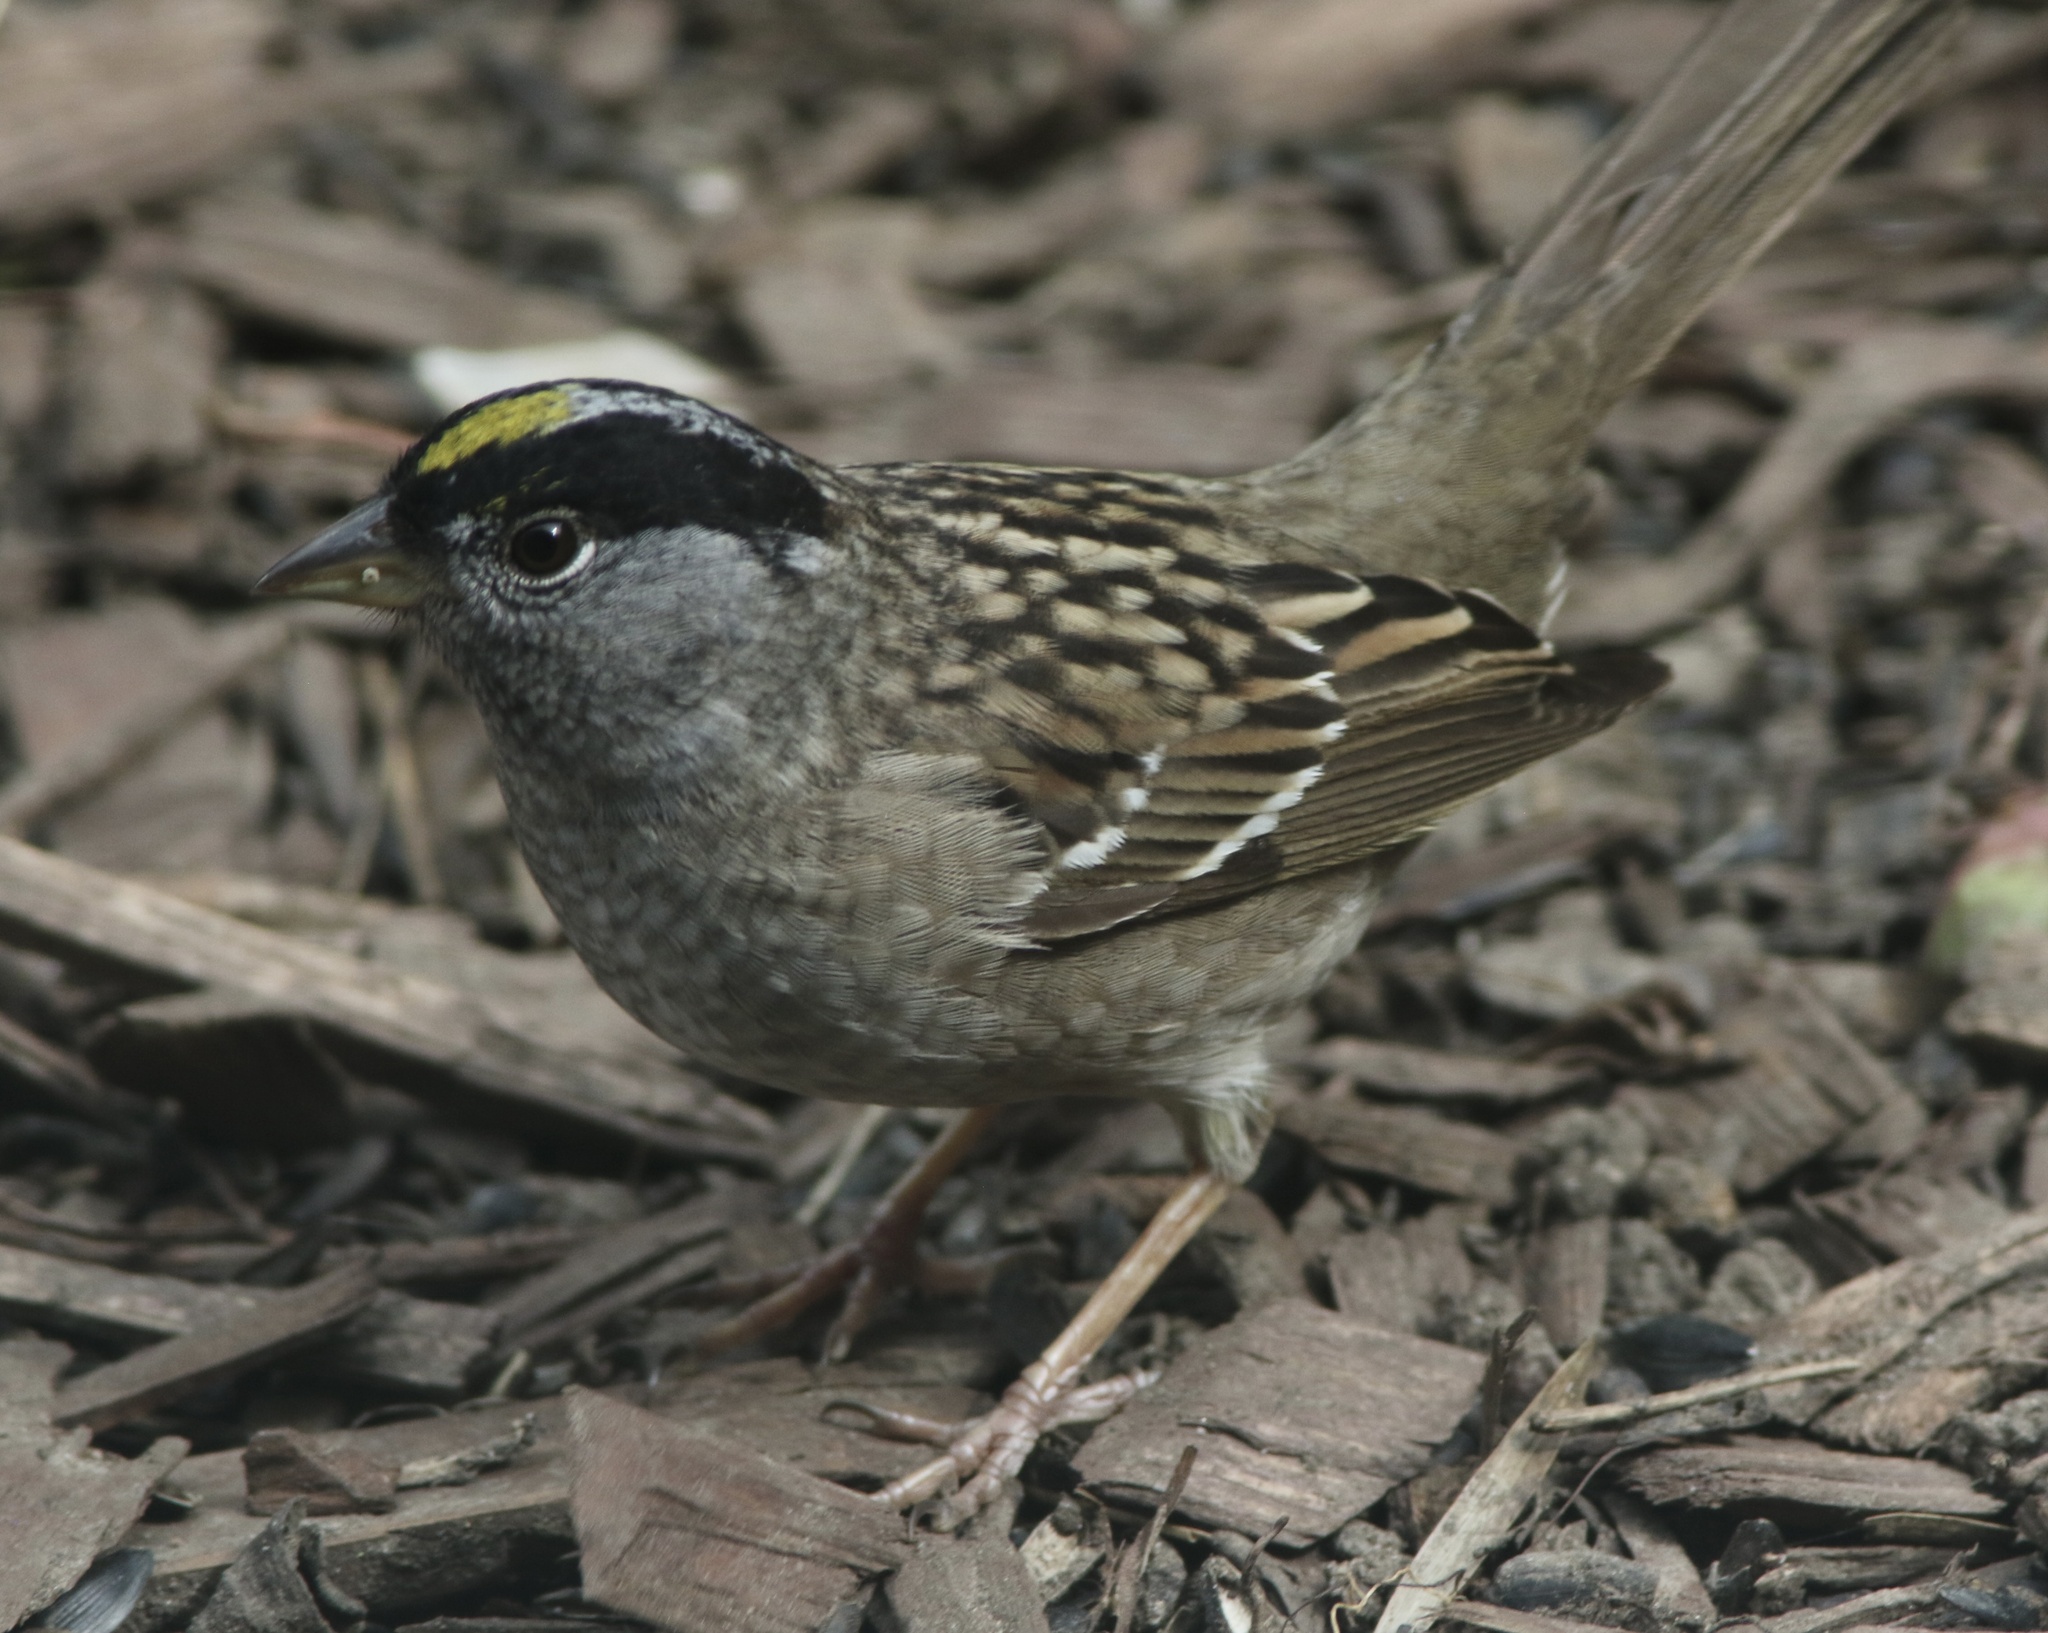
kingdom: Animalia
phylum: Chordata
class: Aves
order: Passeriformes
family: Passerellidae
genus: Zonotrichia
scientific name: Zonotrichia atricapilla
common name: Golden-crowned sparrow
